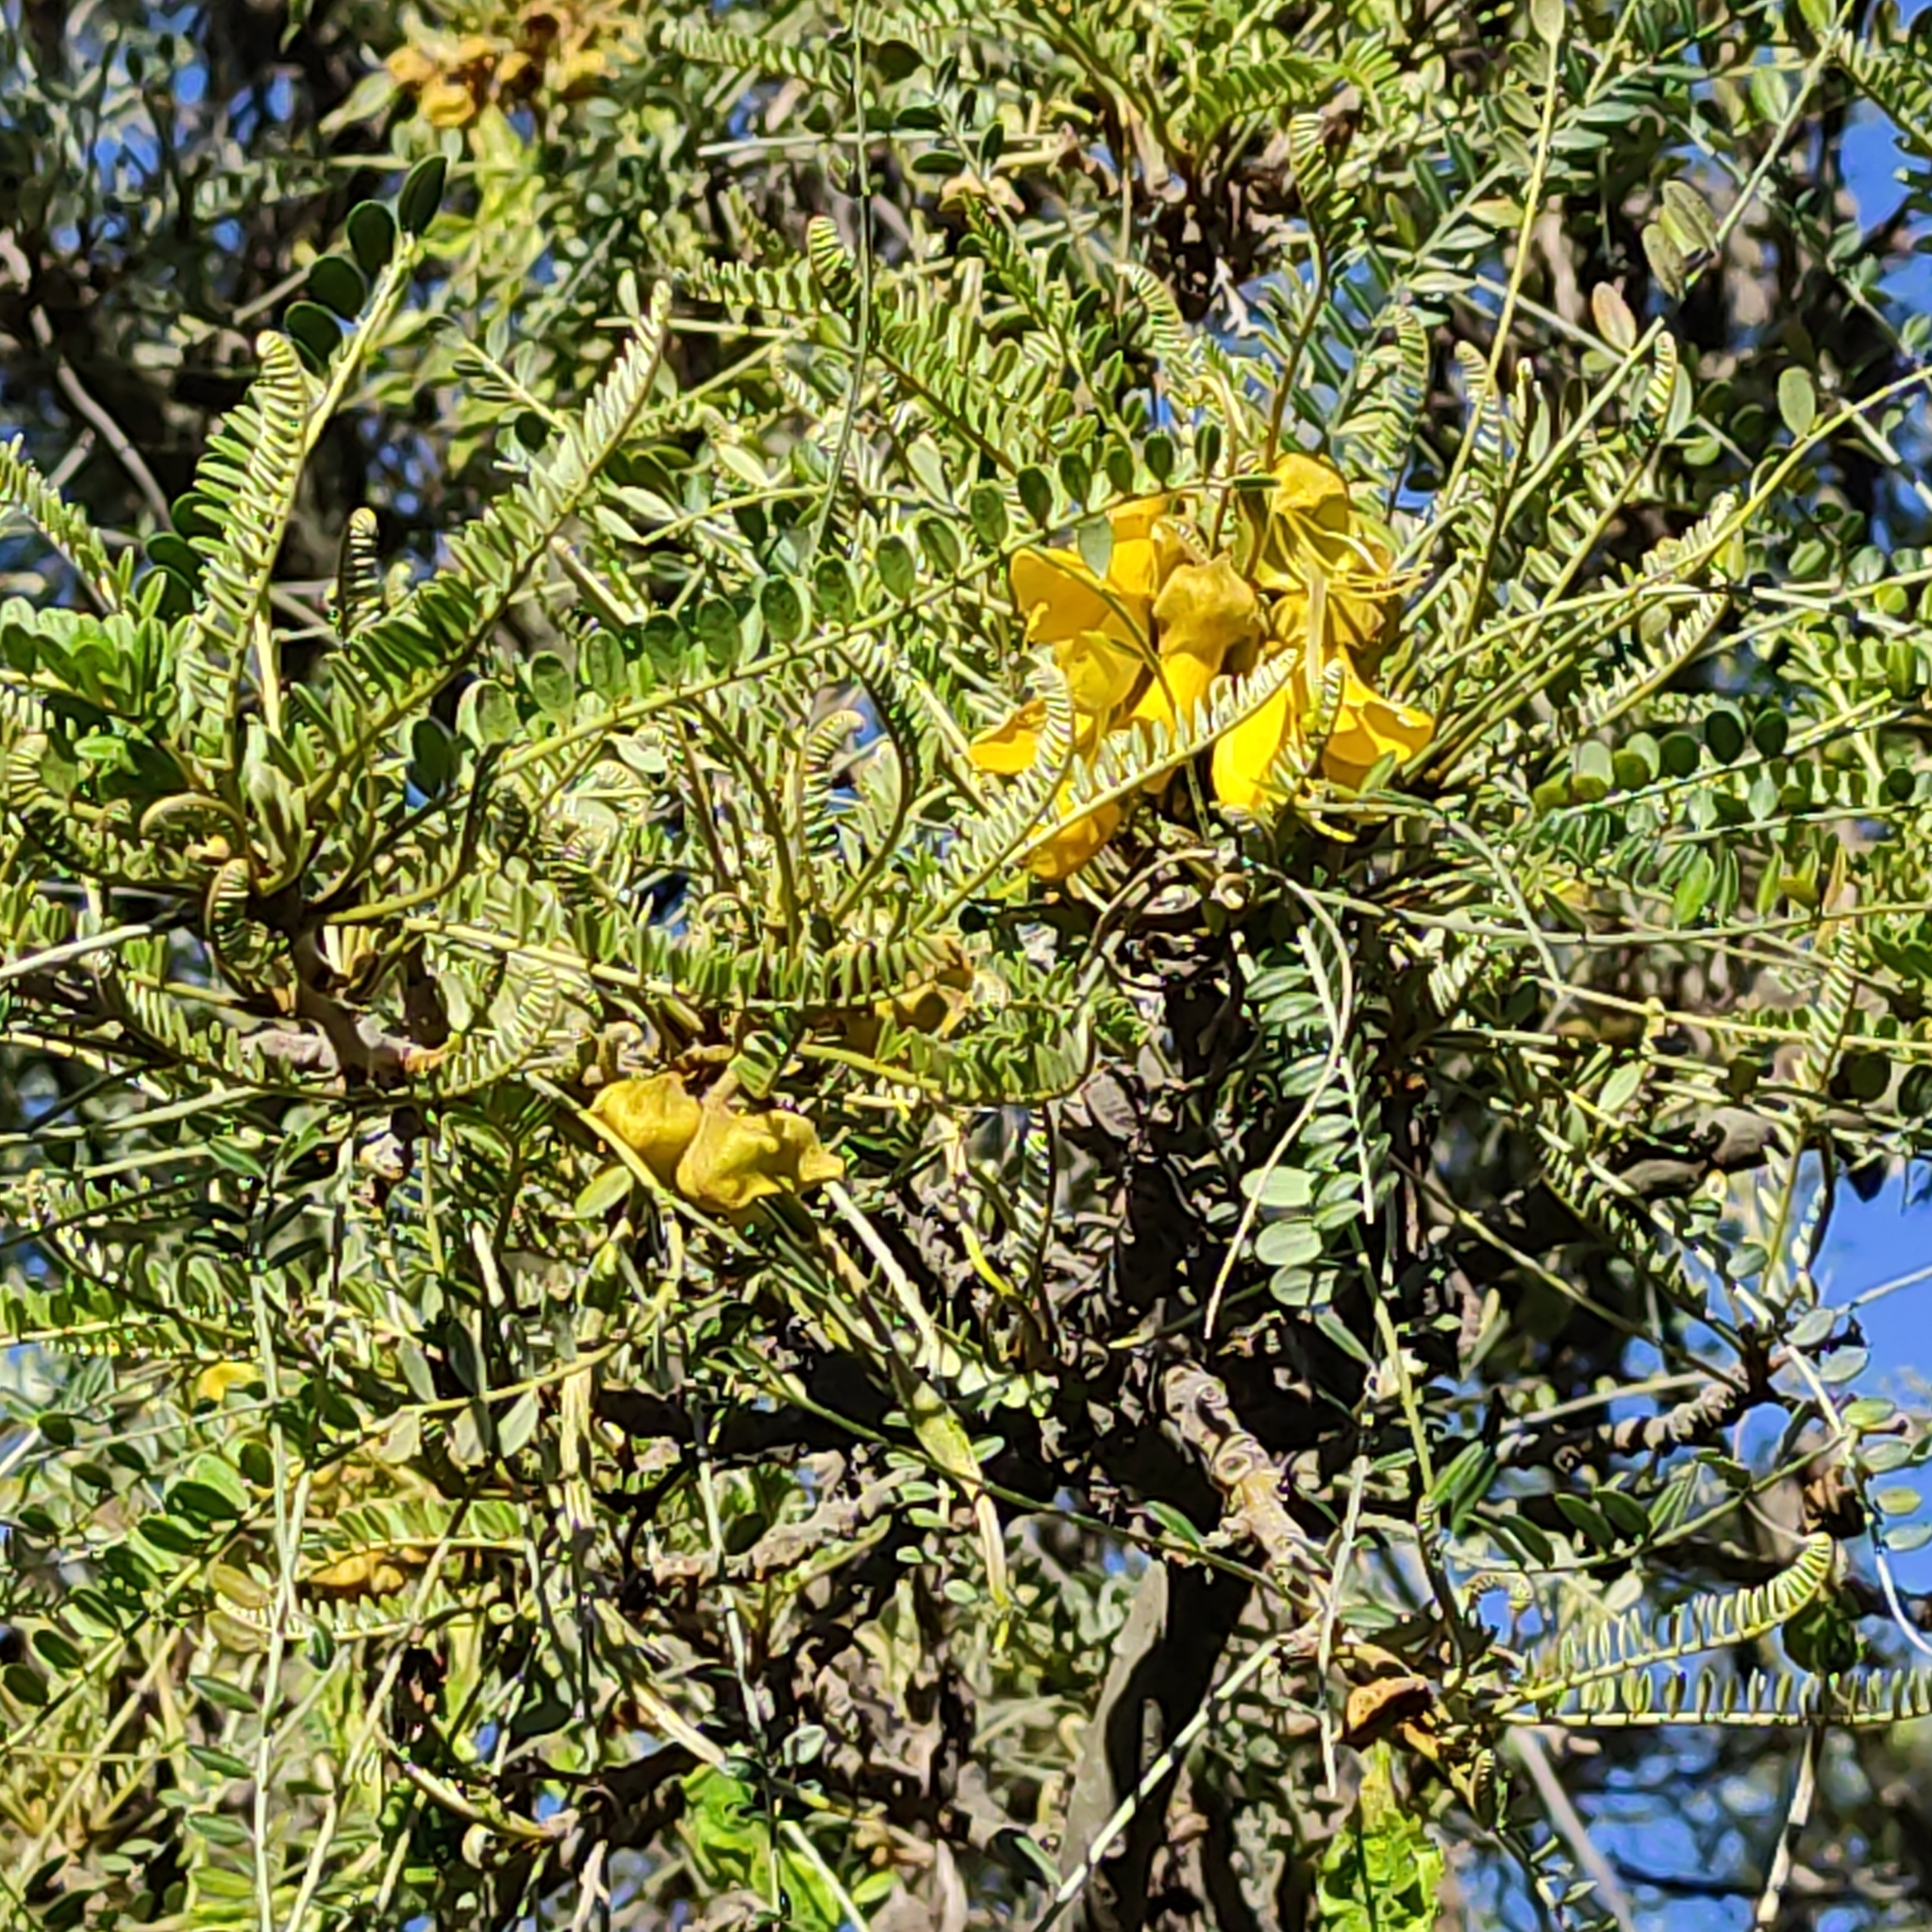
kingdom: Plantae
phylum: Tracheophyta
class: Magnoliopsida
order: Fabales
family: Fabaceae
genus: Sophora
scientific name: Sophora microphylla
